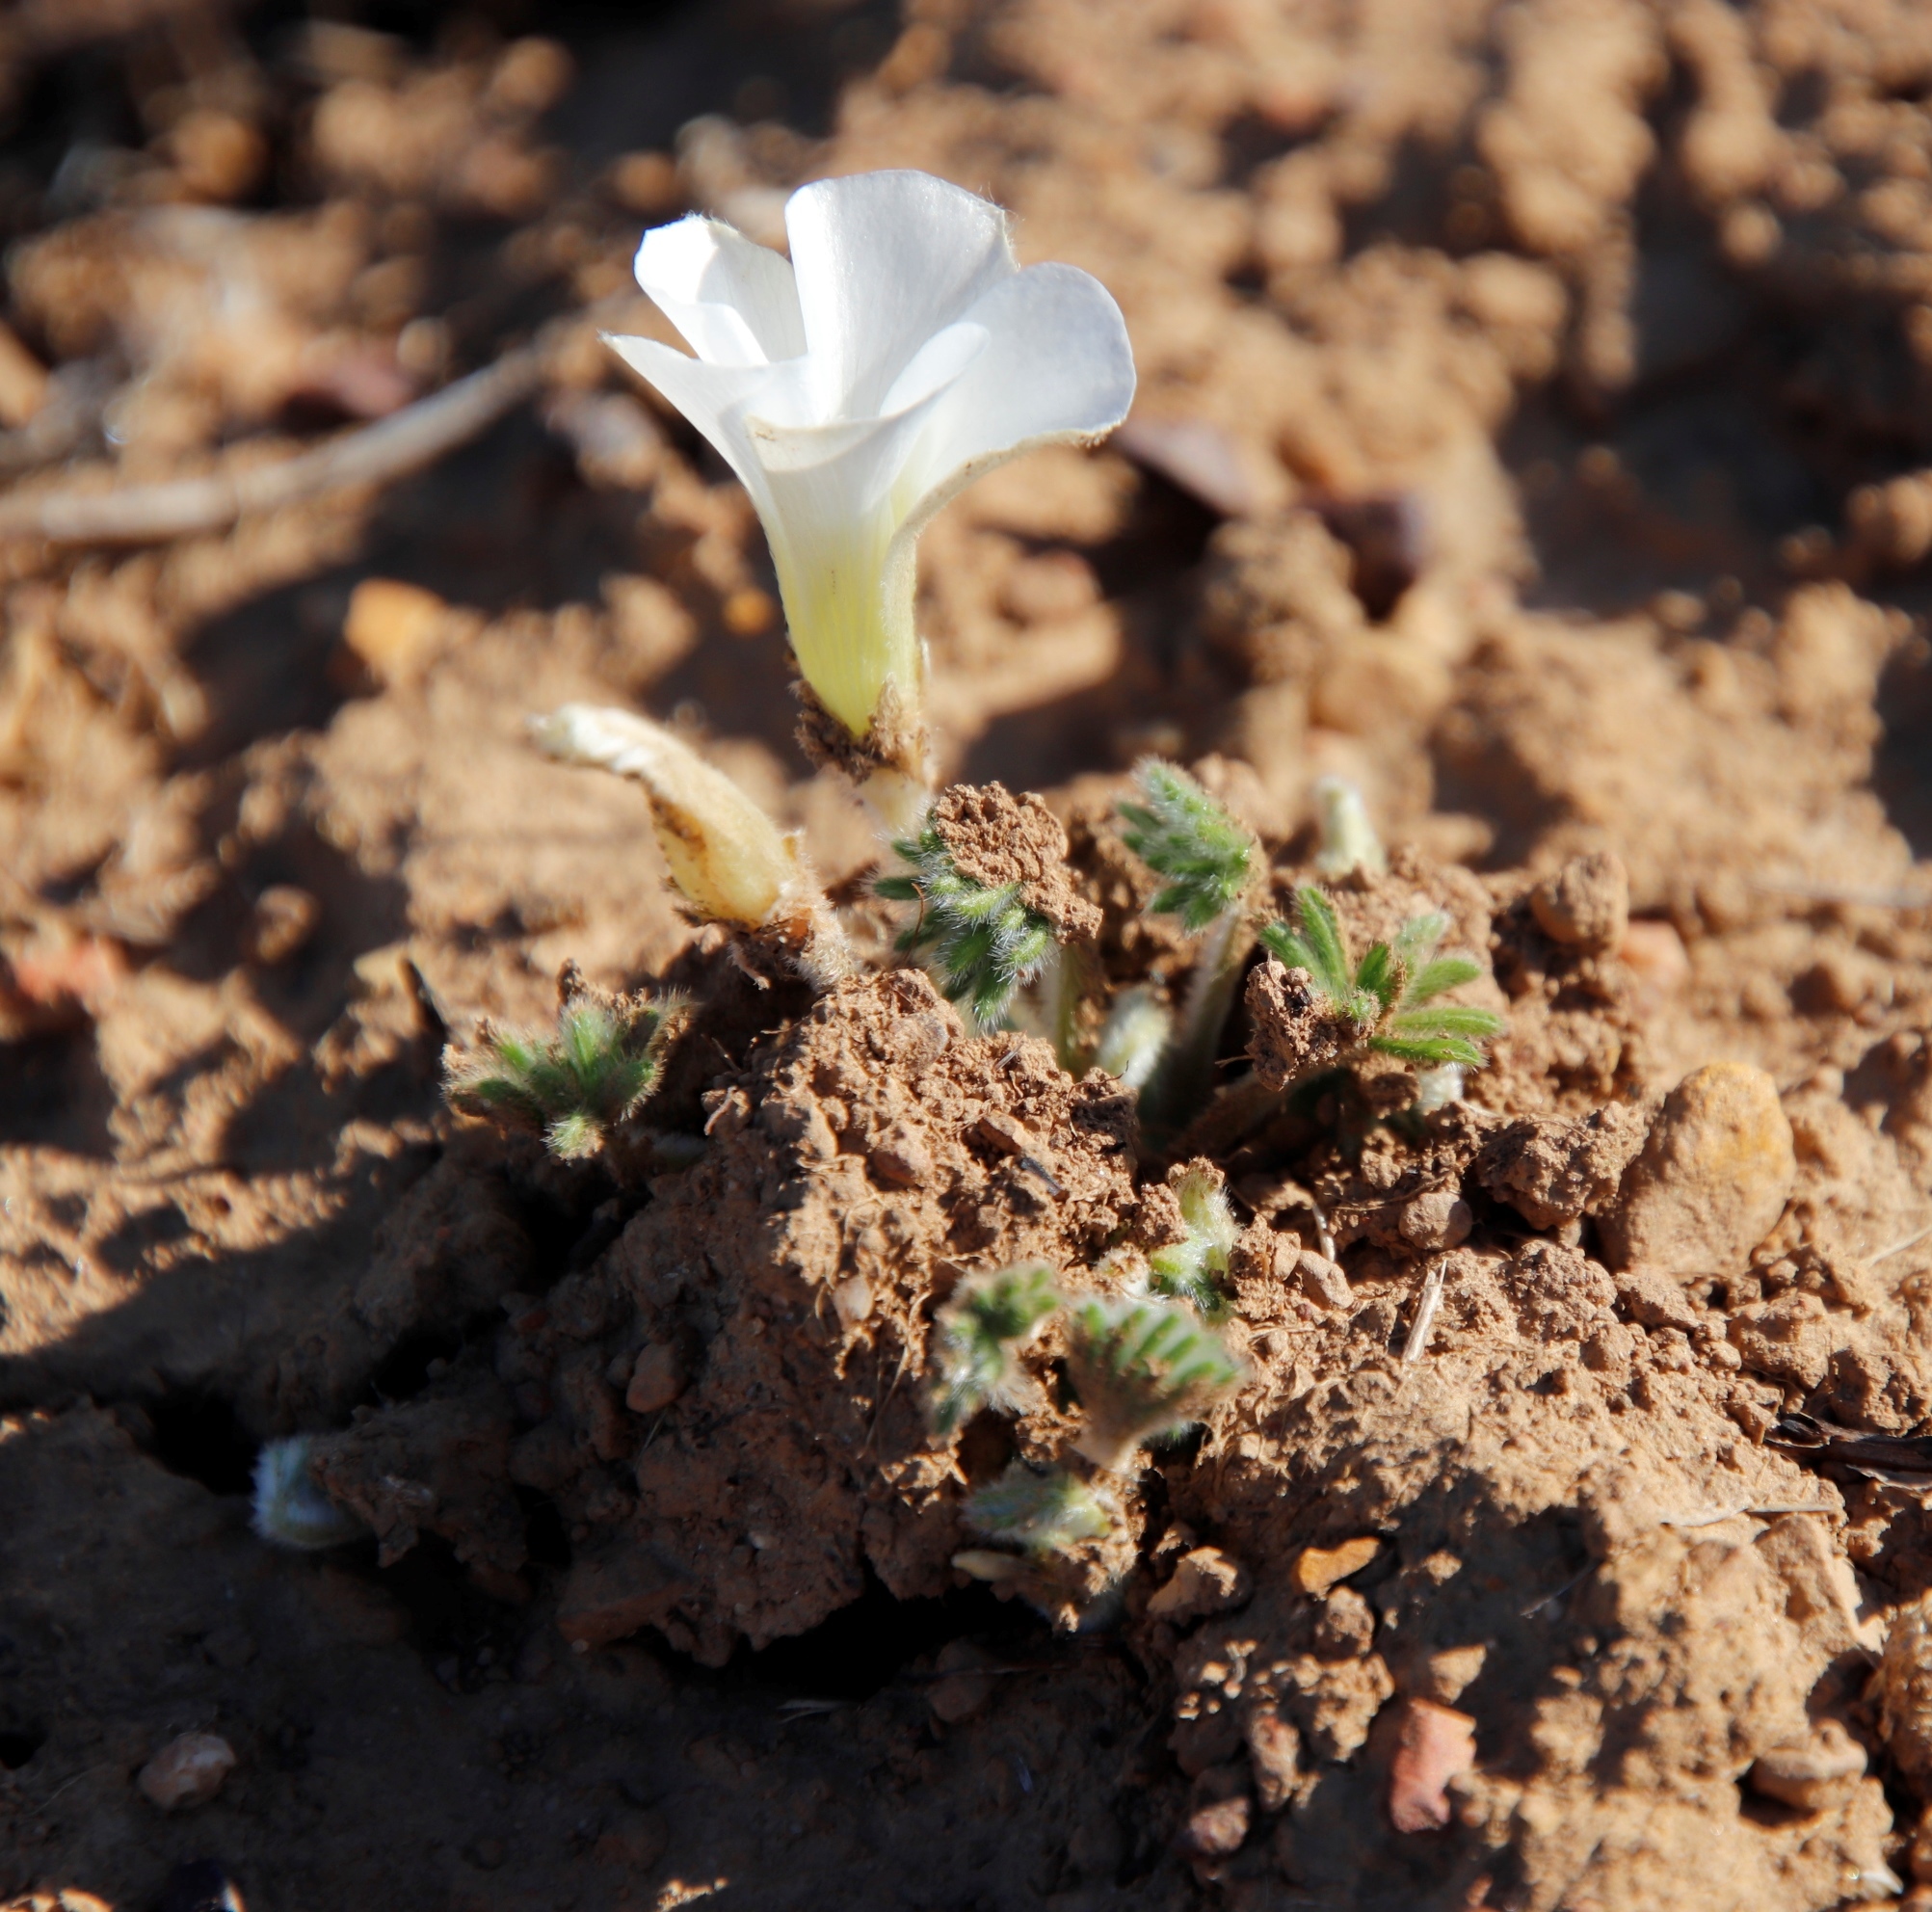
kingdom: Plantae
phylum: Tracheophyta
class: Magnoliopsida
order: Oxalidales
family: Oxalidaceae
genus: Oxalis
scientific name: Oxalis tomentosa
